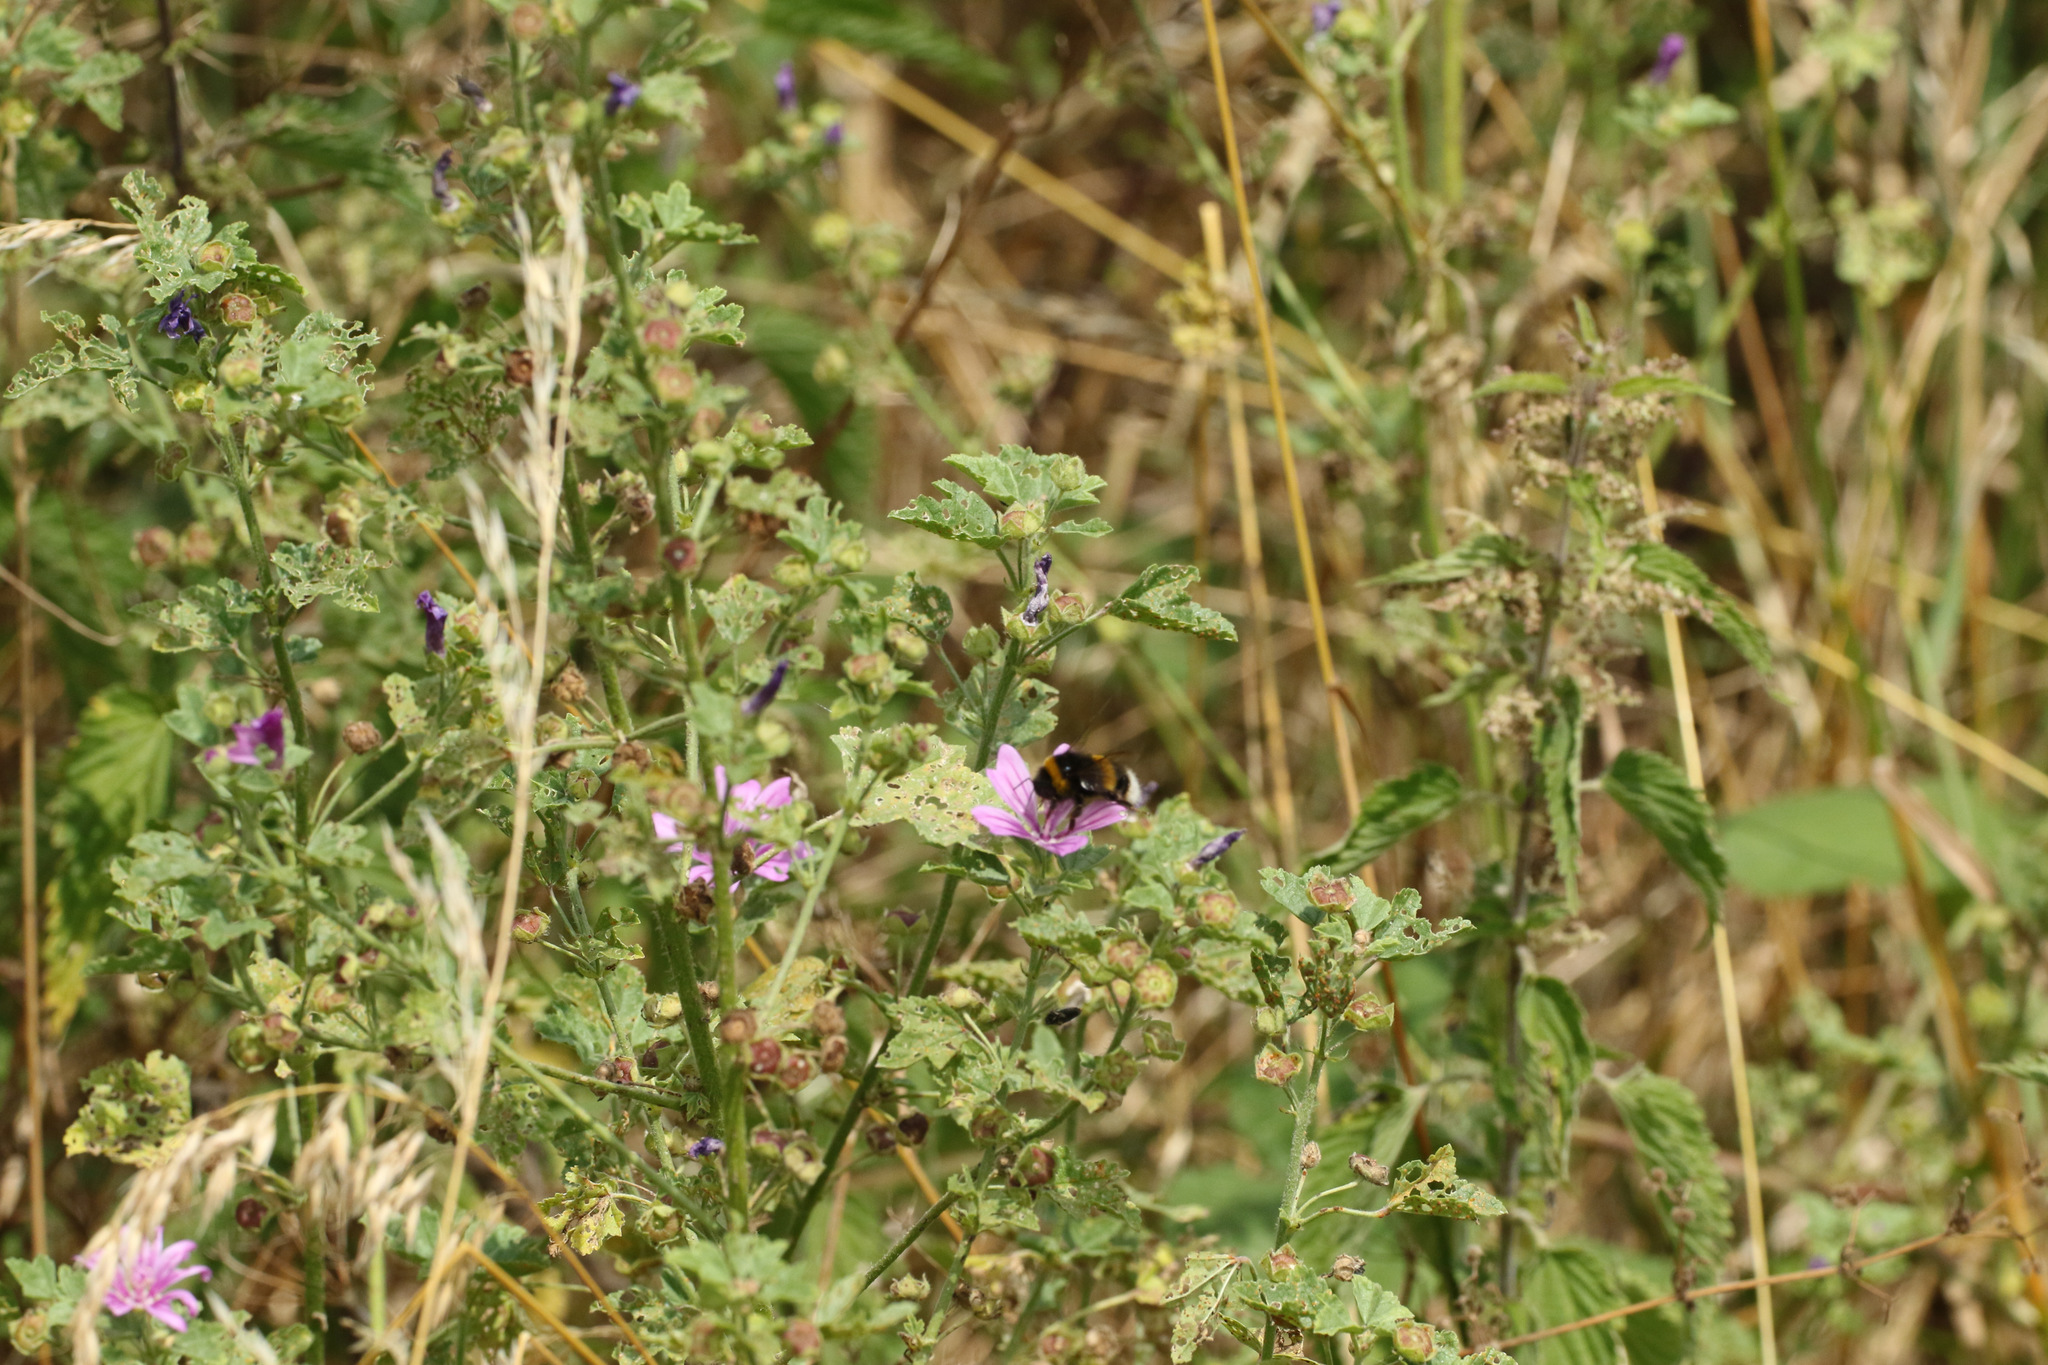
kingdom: Plantae
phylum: Tracheophyta
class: Magnoliopsida
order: Malvales
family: Malvaceae
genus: Malva
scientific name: Malva sylvestris
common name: Common mallow
